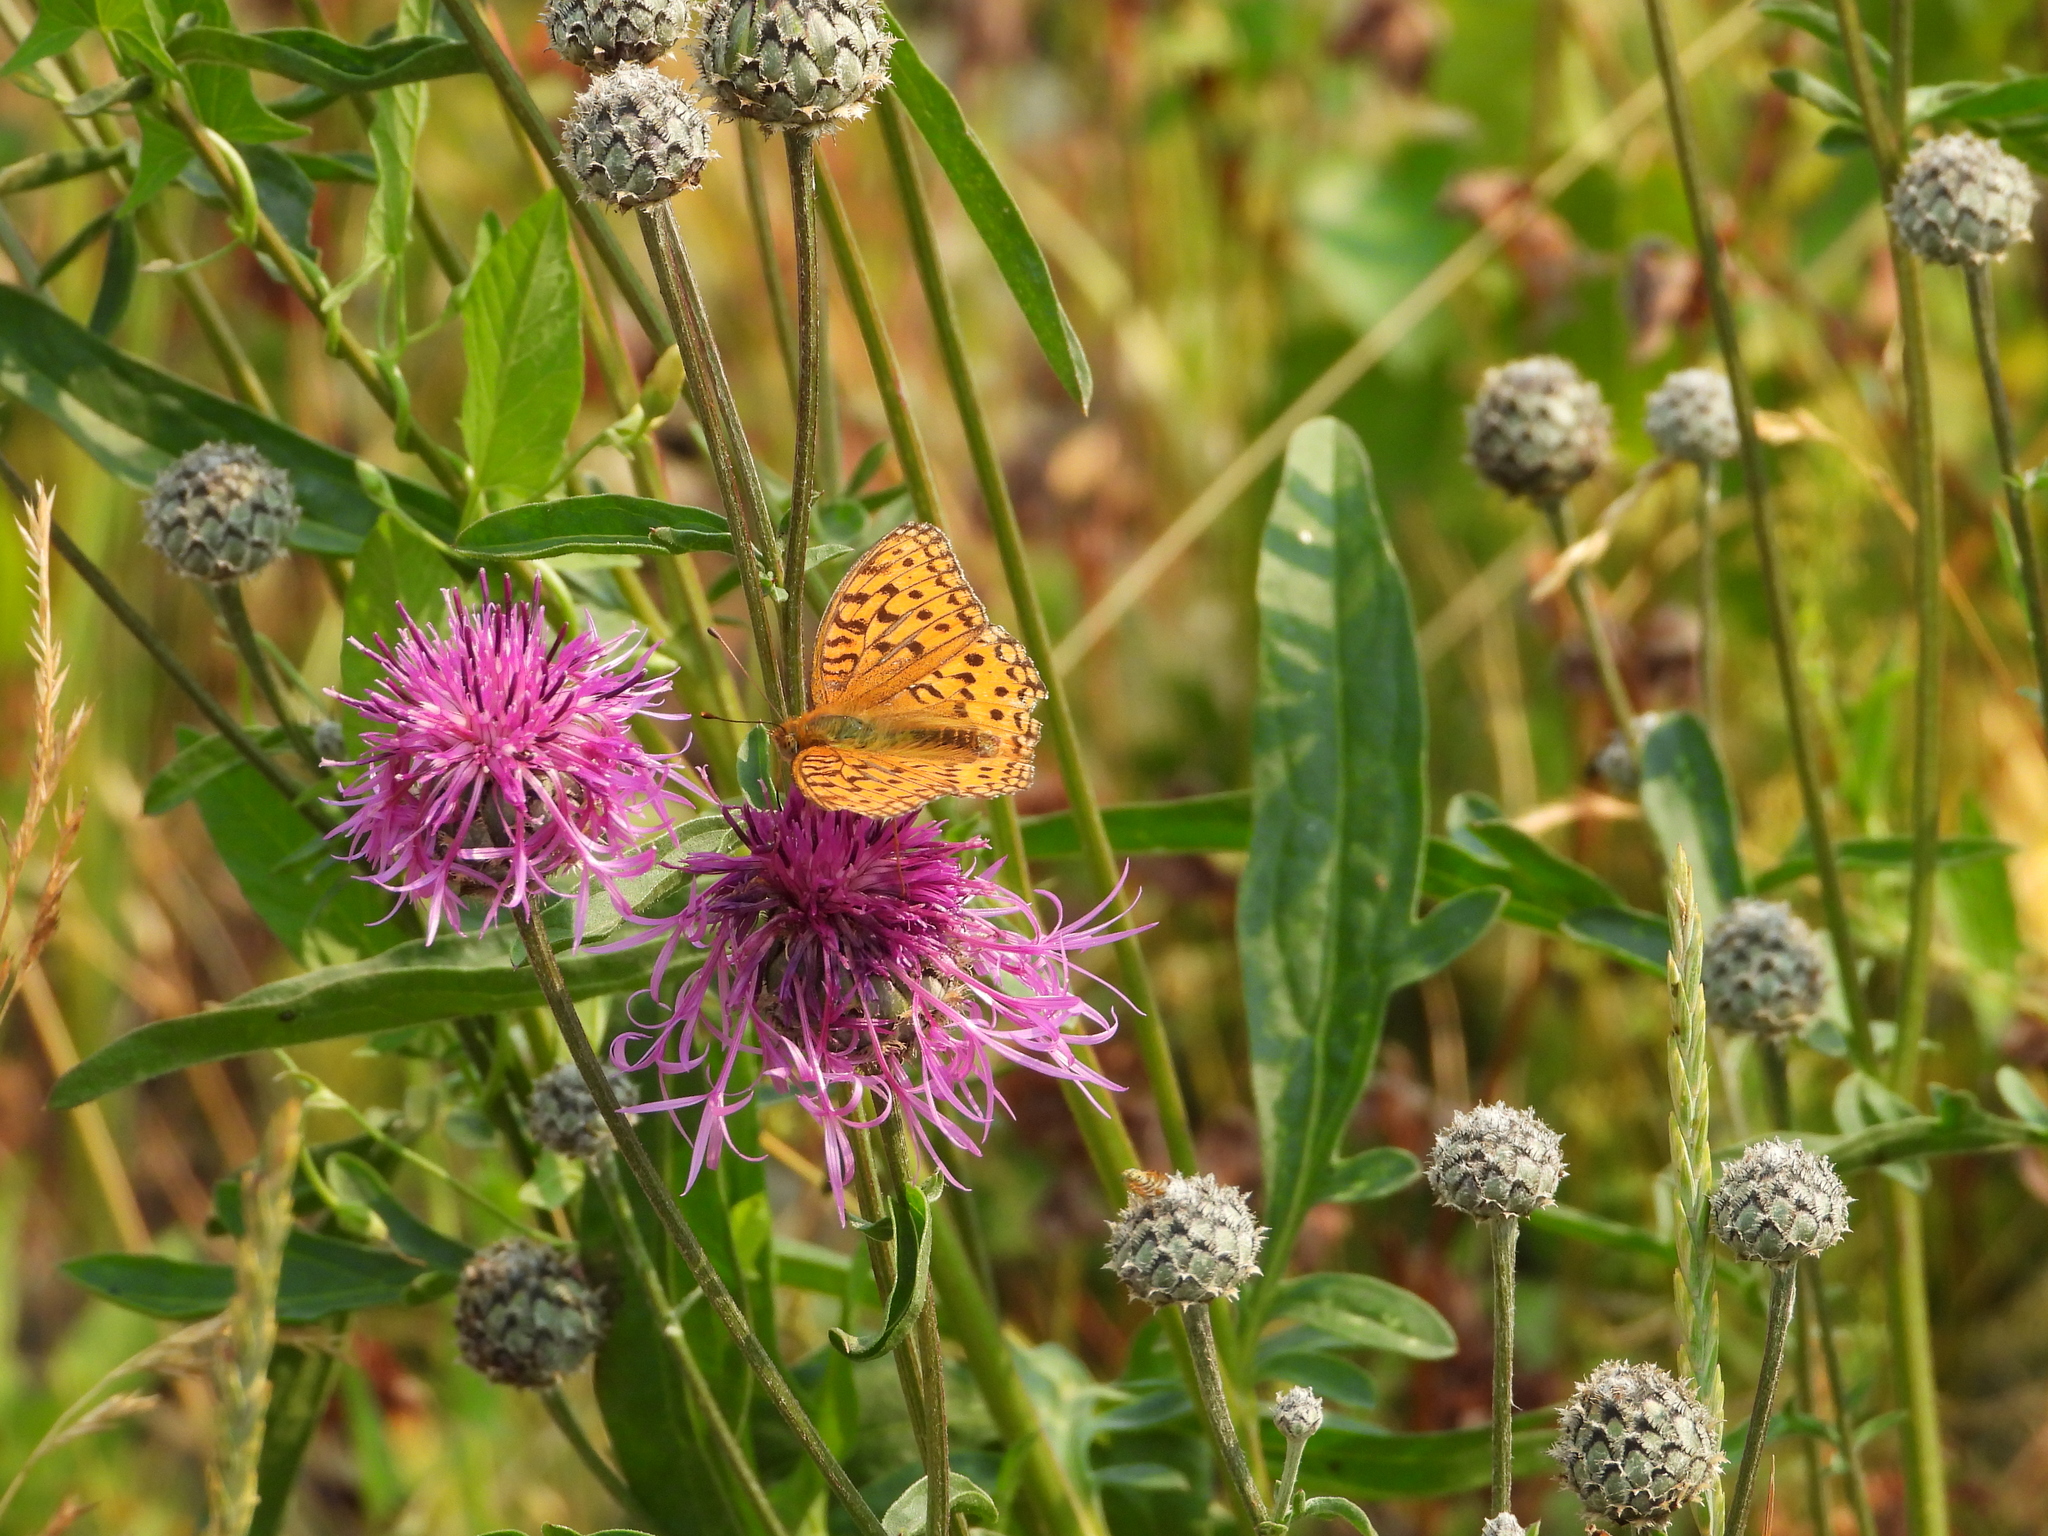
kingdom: Animalia
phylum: Arthropoda
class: Insecta
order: Lepidoptera
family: Nymphalidae
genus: Fabriciana
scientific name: Fabriciana adippe
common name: High brown fritillary
